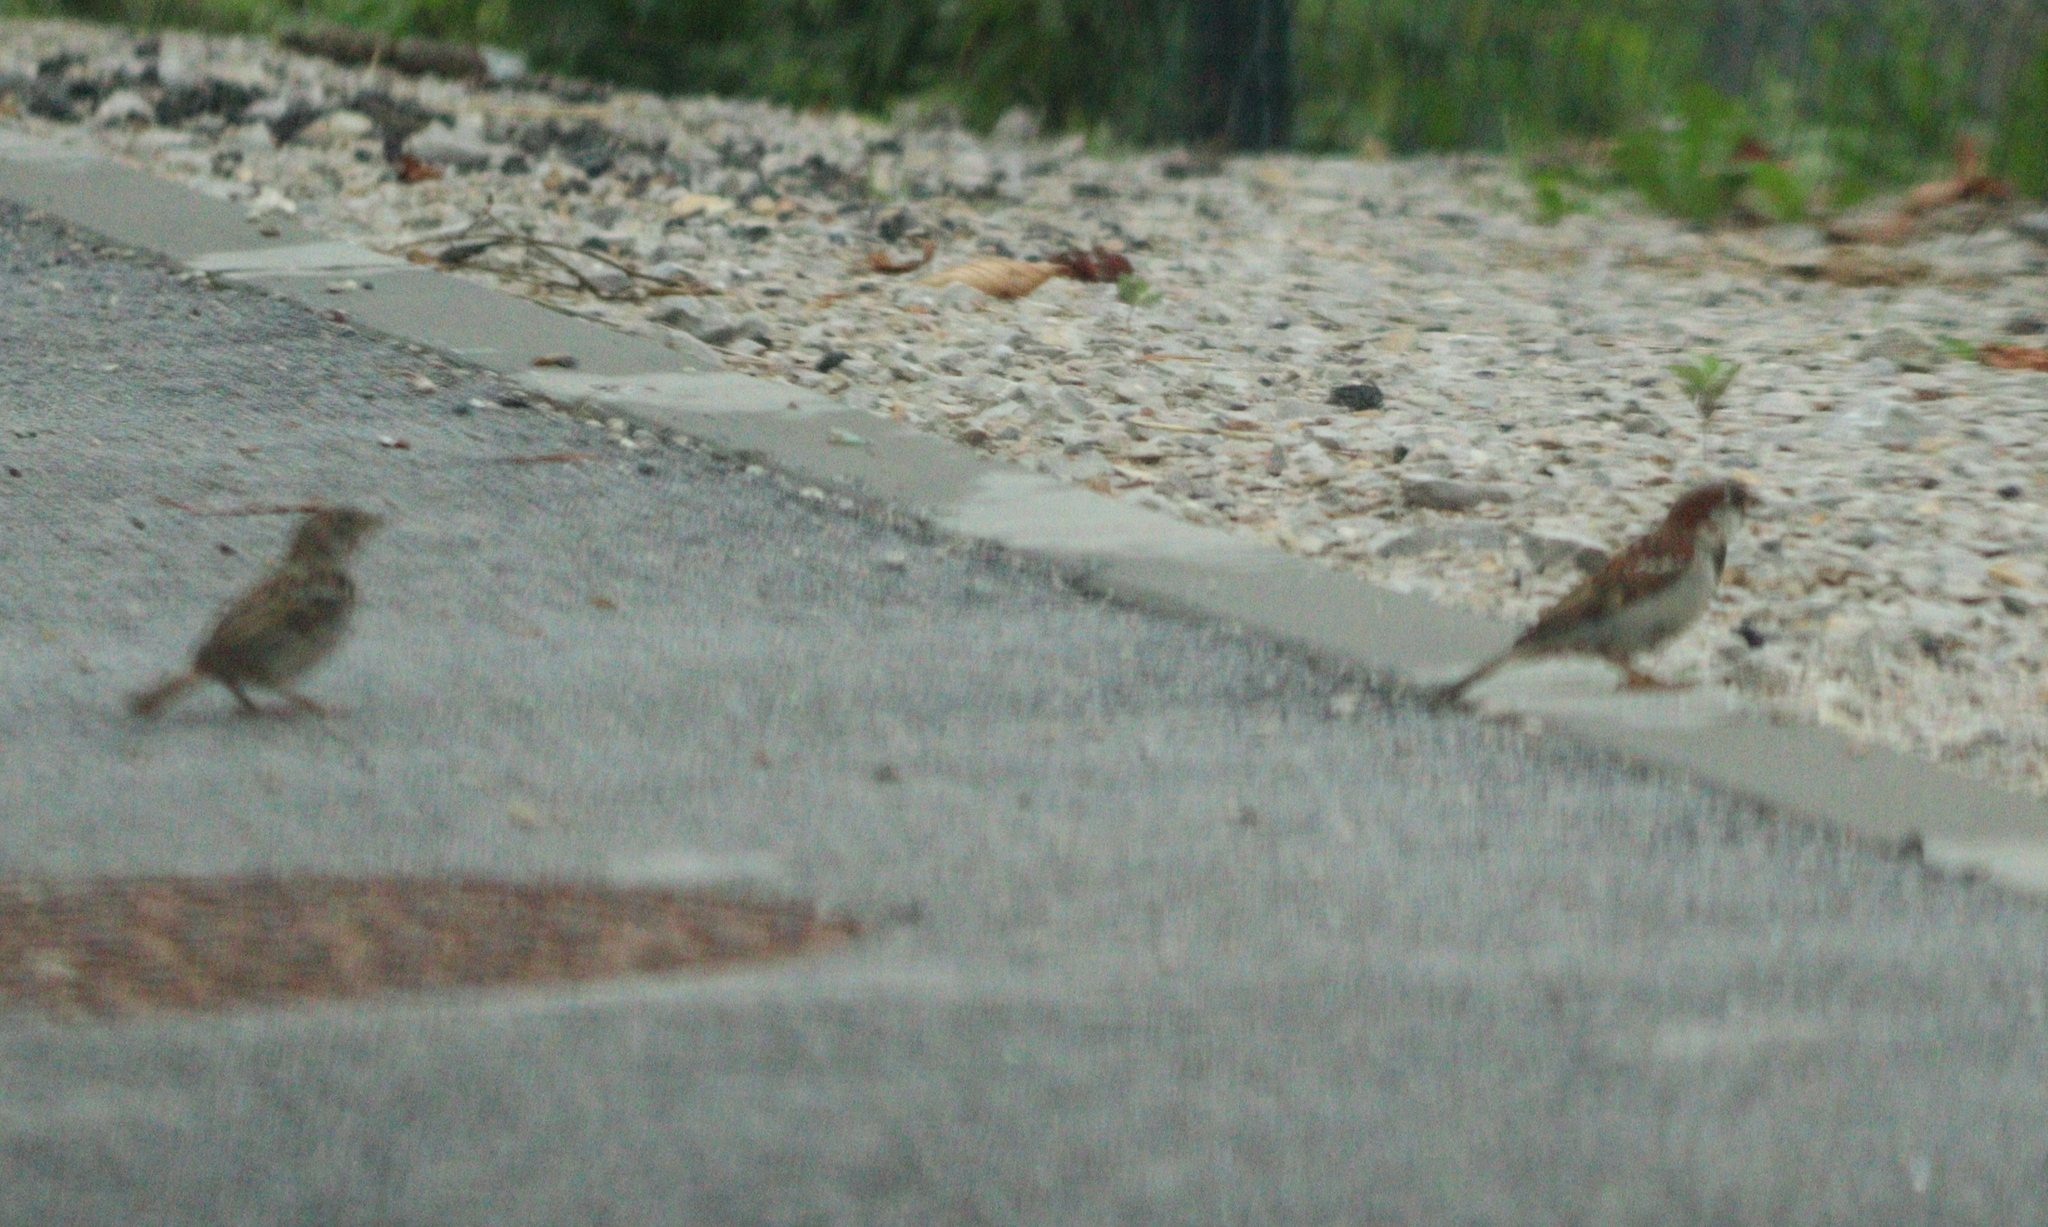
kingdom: Animalia
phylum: Chordata
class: Aves
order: Passeriformes
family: Passeridae
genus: Passer
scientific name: Passer domesticus
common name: House sparrow
